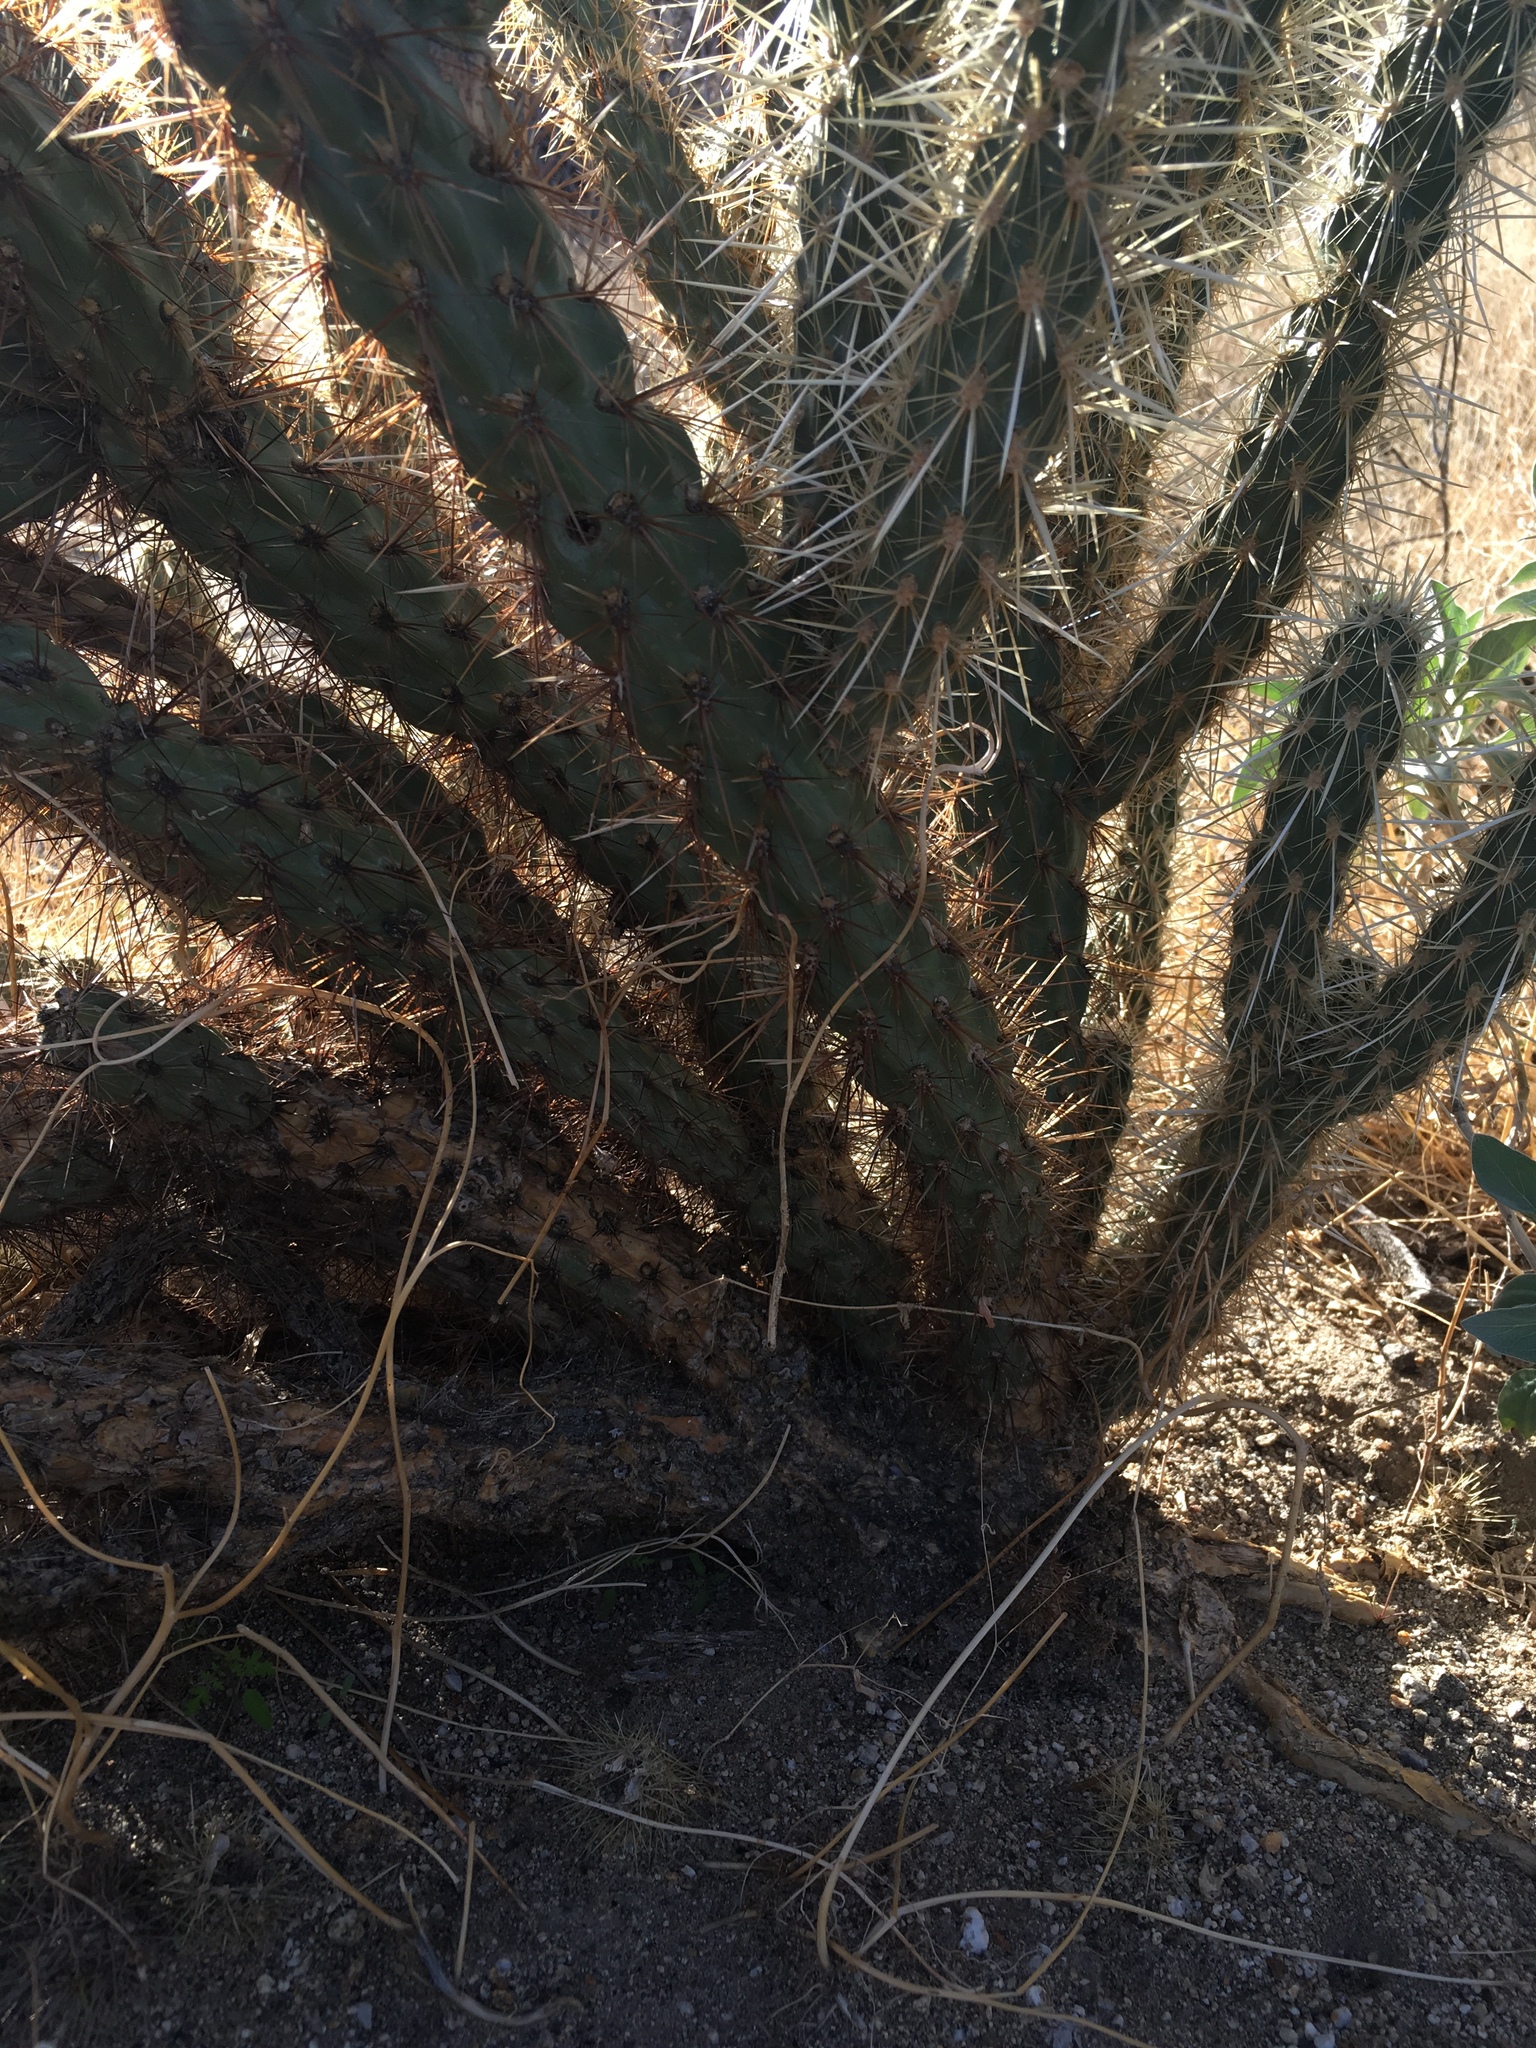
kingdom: Plantae
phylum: Tracheophyta
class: Magnoliopsida
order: Caryophyllales
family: Cactaceae
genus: Cylindropuntia
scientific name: Cylindropuntia ganderi
